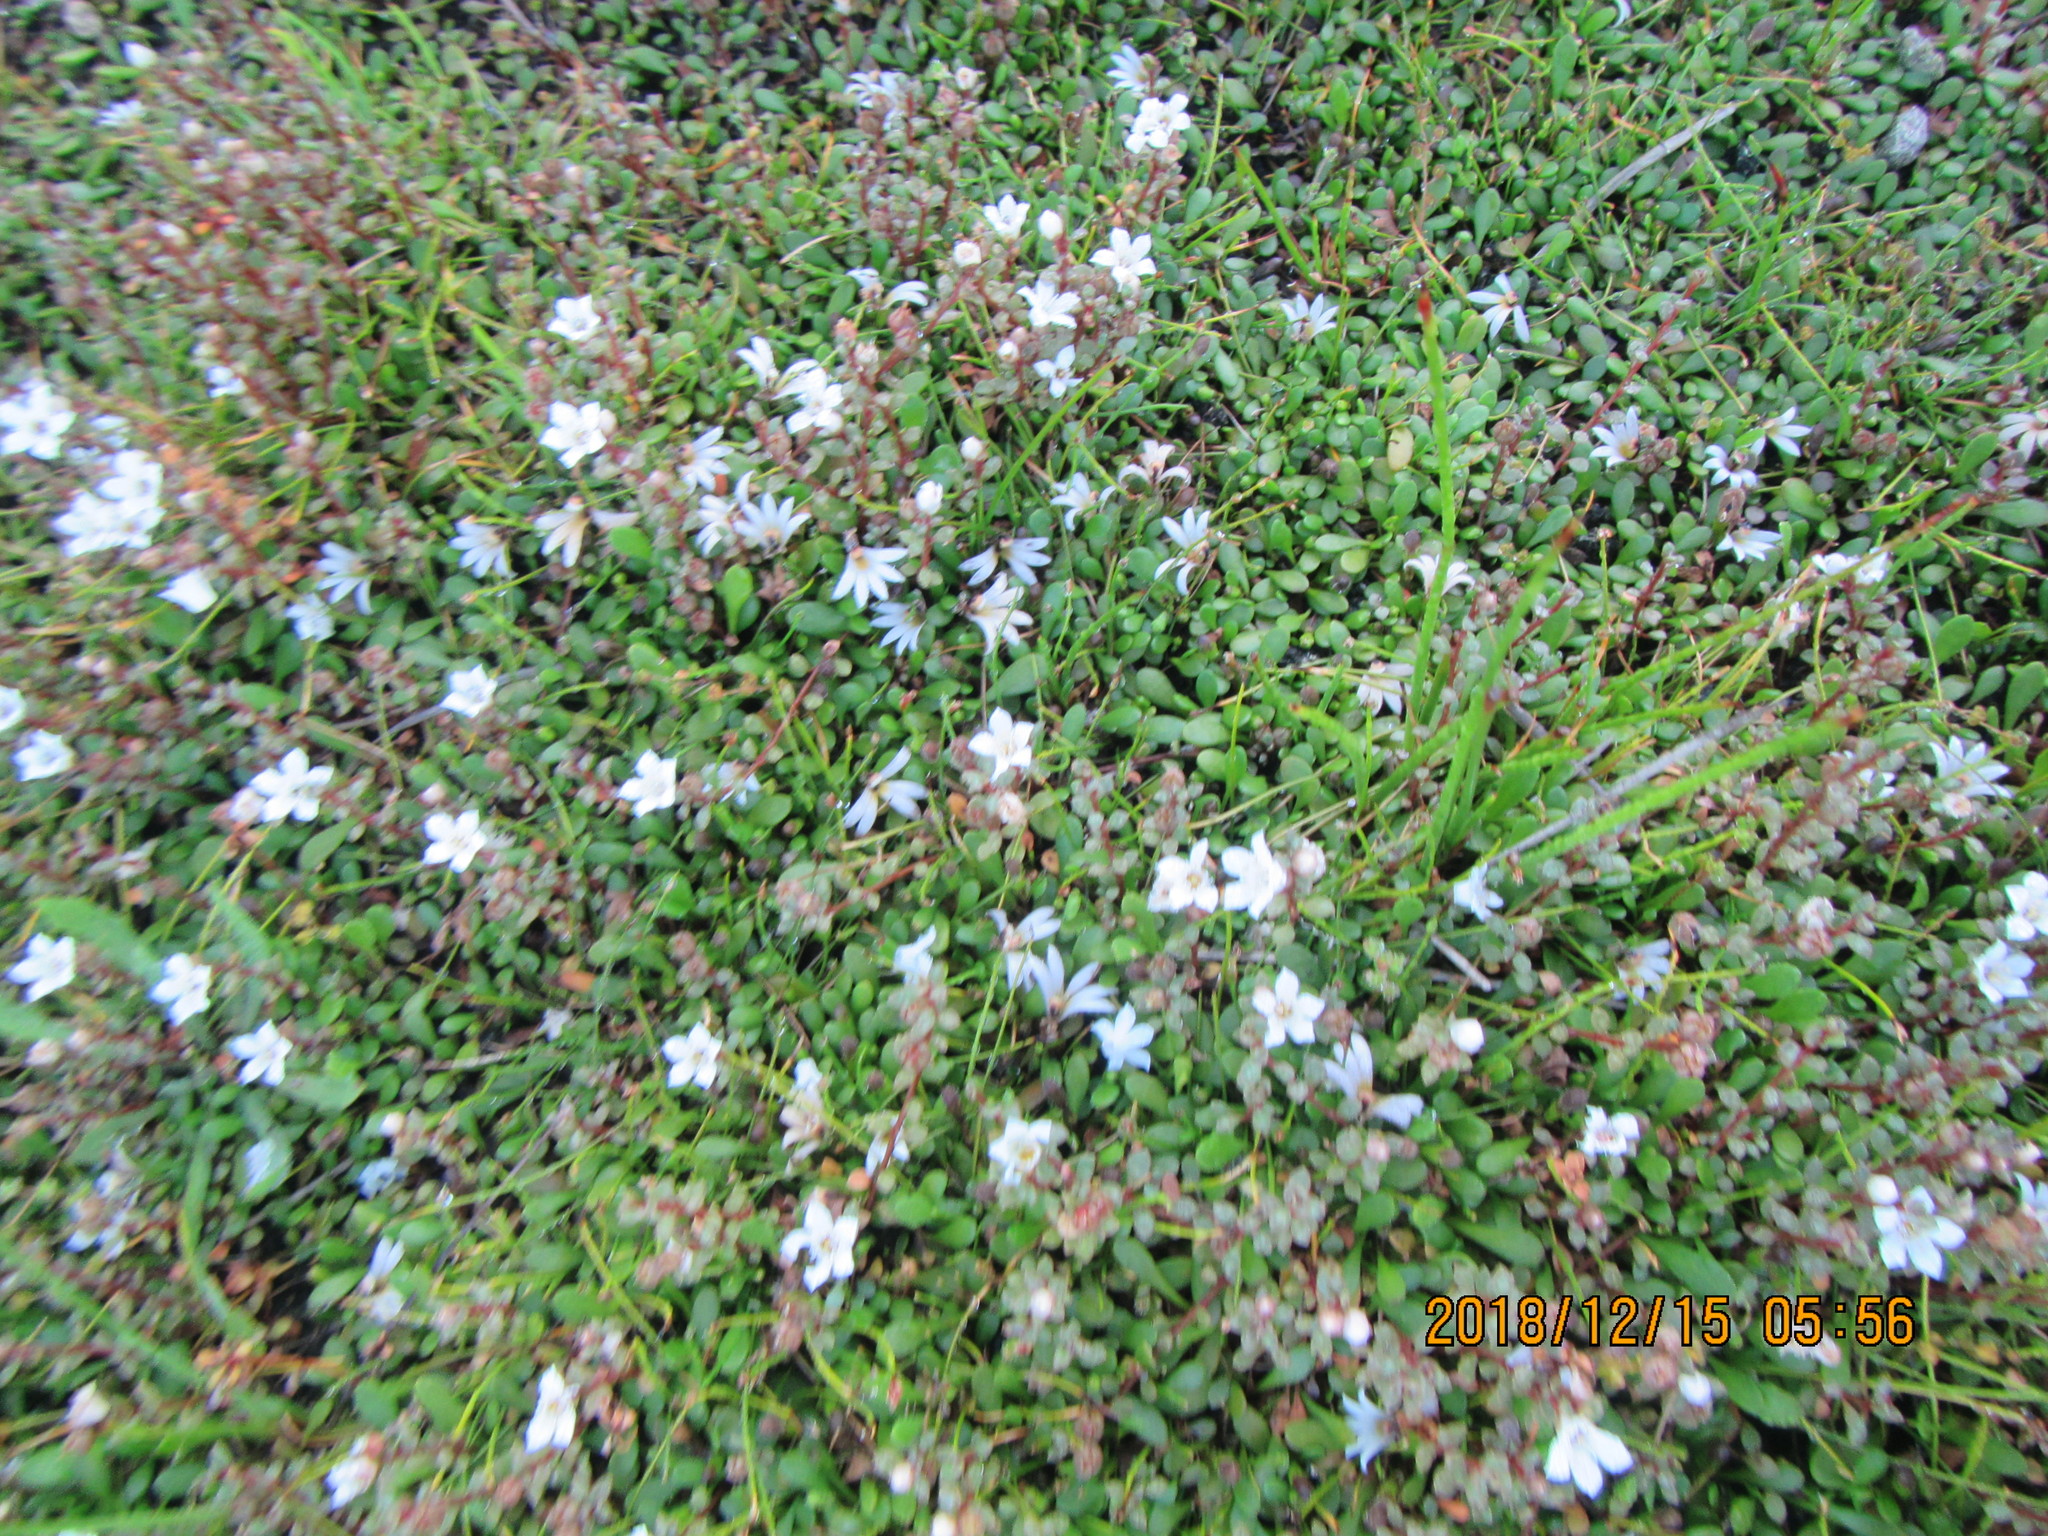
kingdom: Plantae
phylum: Tracheophyta
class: Magnoliopsida
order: Asterales
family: Goodeniaceae
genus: Goodenia
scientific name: Goodenia radicans
